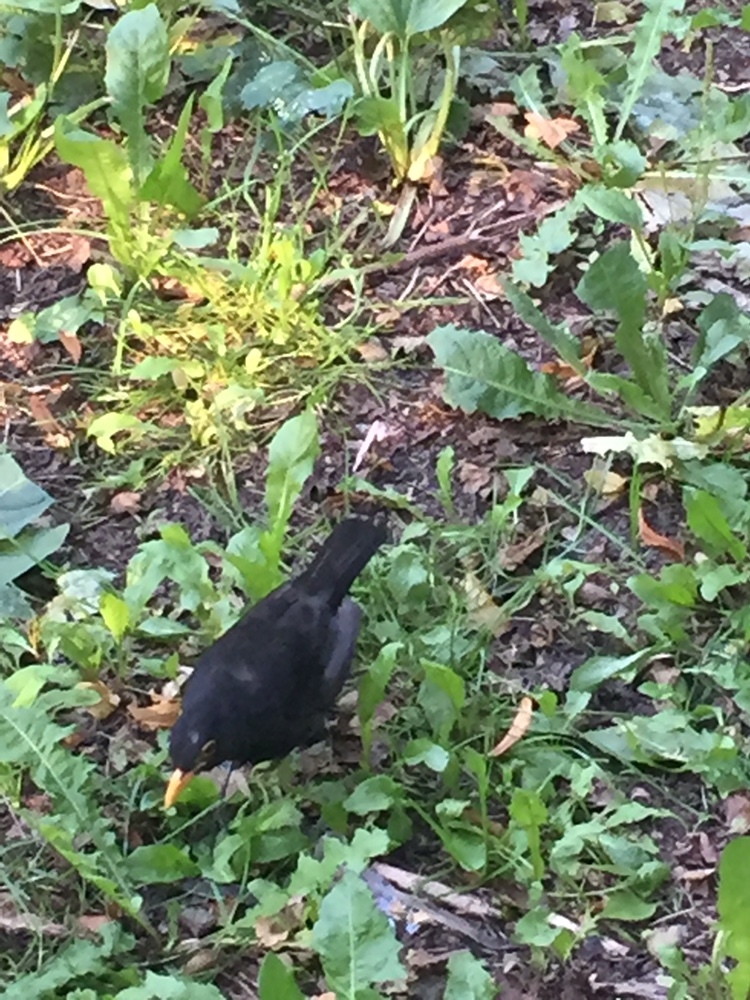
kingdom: Animalia
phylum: Chordata
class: Aves
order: Passeriformes
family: Turdidae
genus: Turdus
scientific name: Turdus merula
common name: Common blackbird
